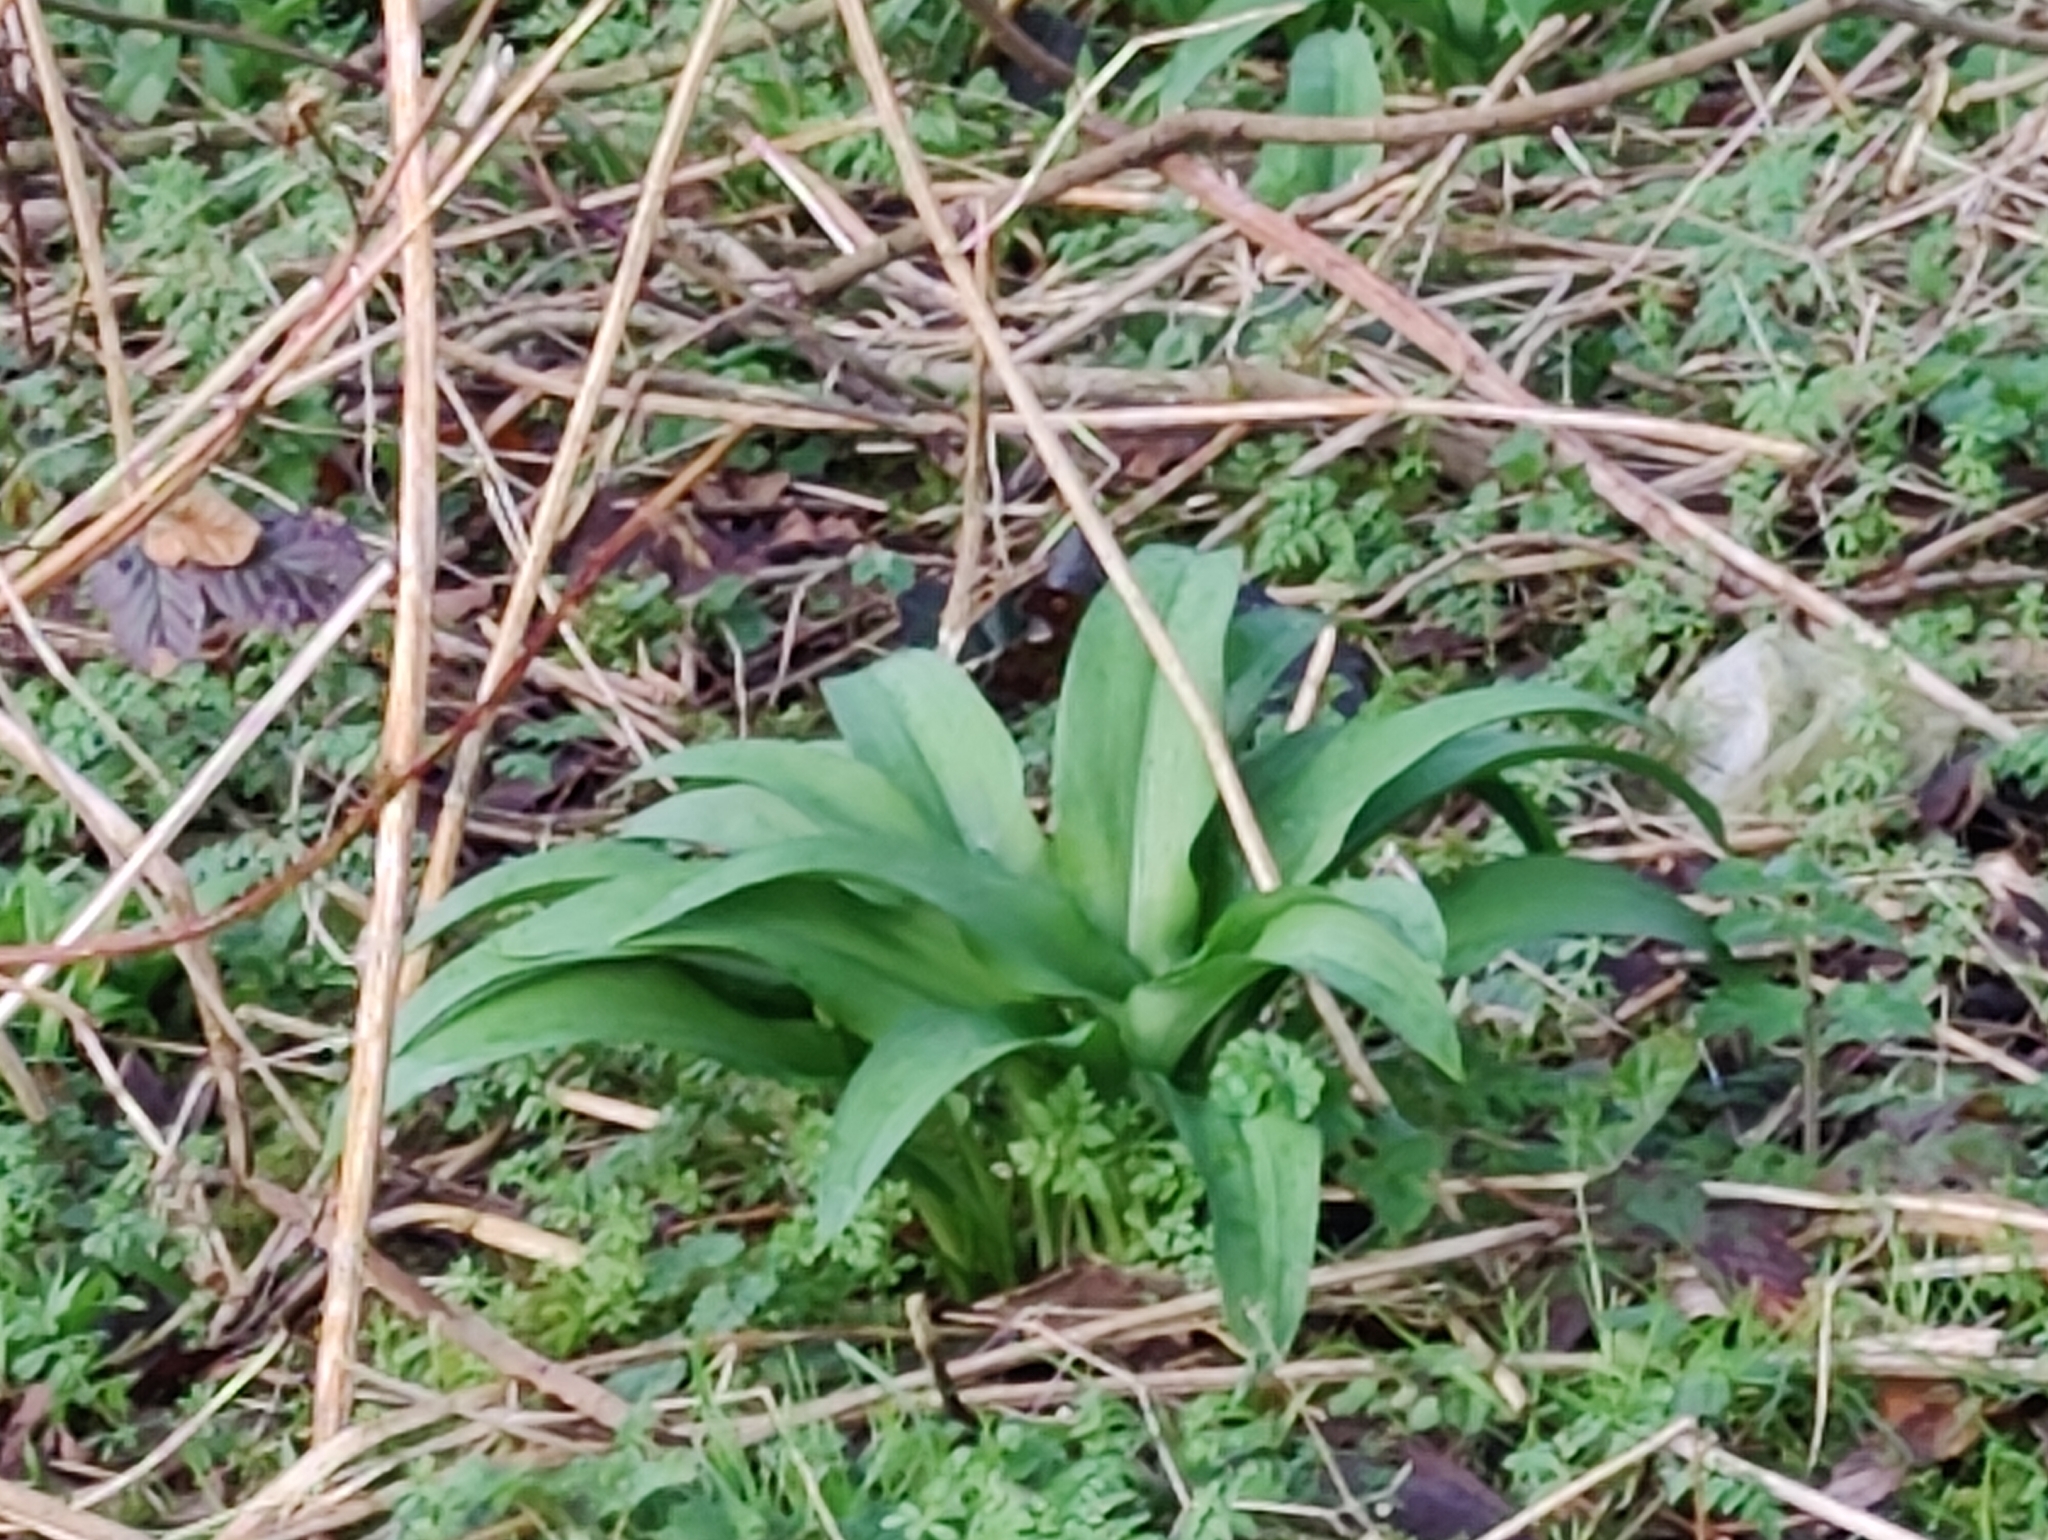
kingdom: Plantae
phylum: Tracheophyta
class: Liliopsida
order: Asparagales
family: Amaryllidaceae
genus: Allium
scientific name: Allium ursinum
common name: Ramsons
